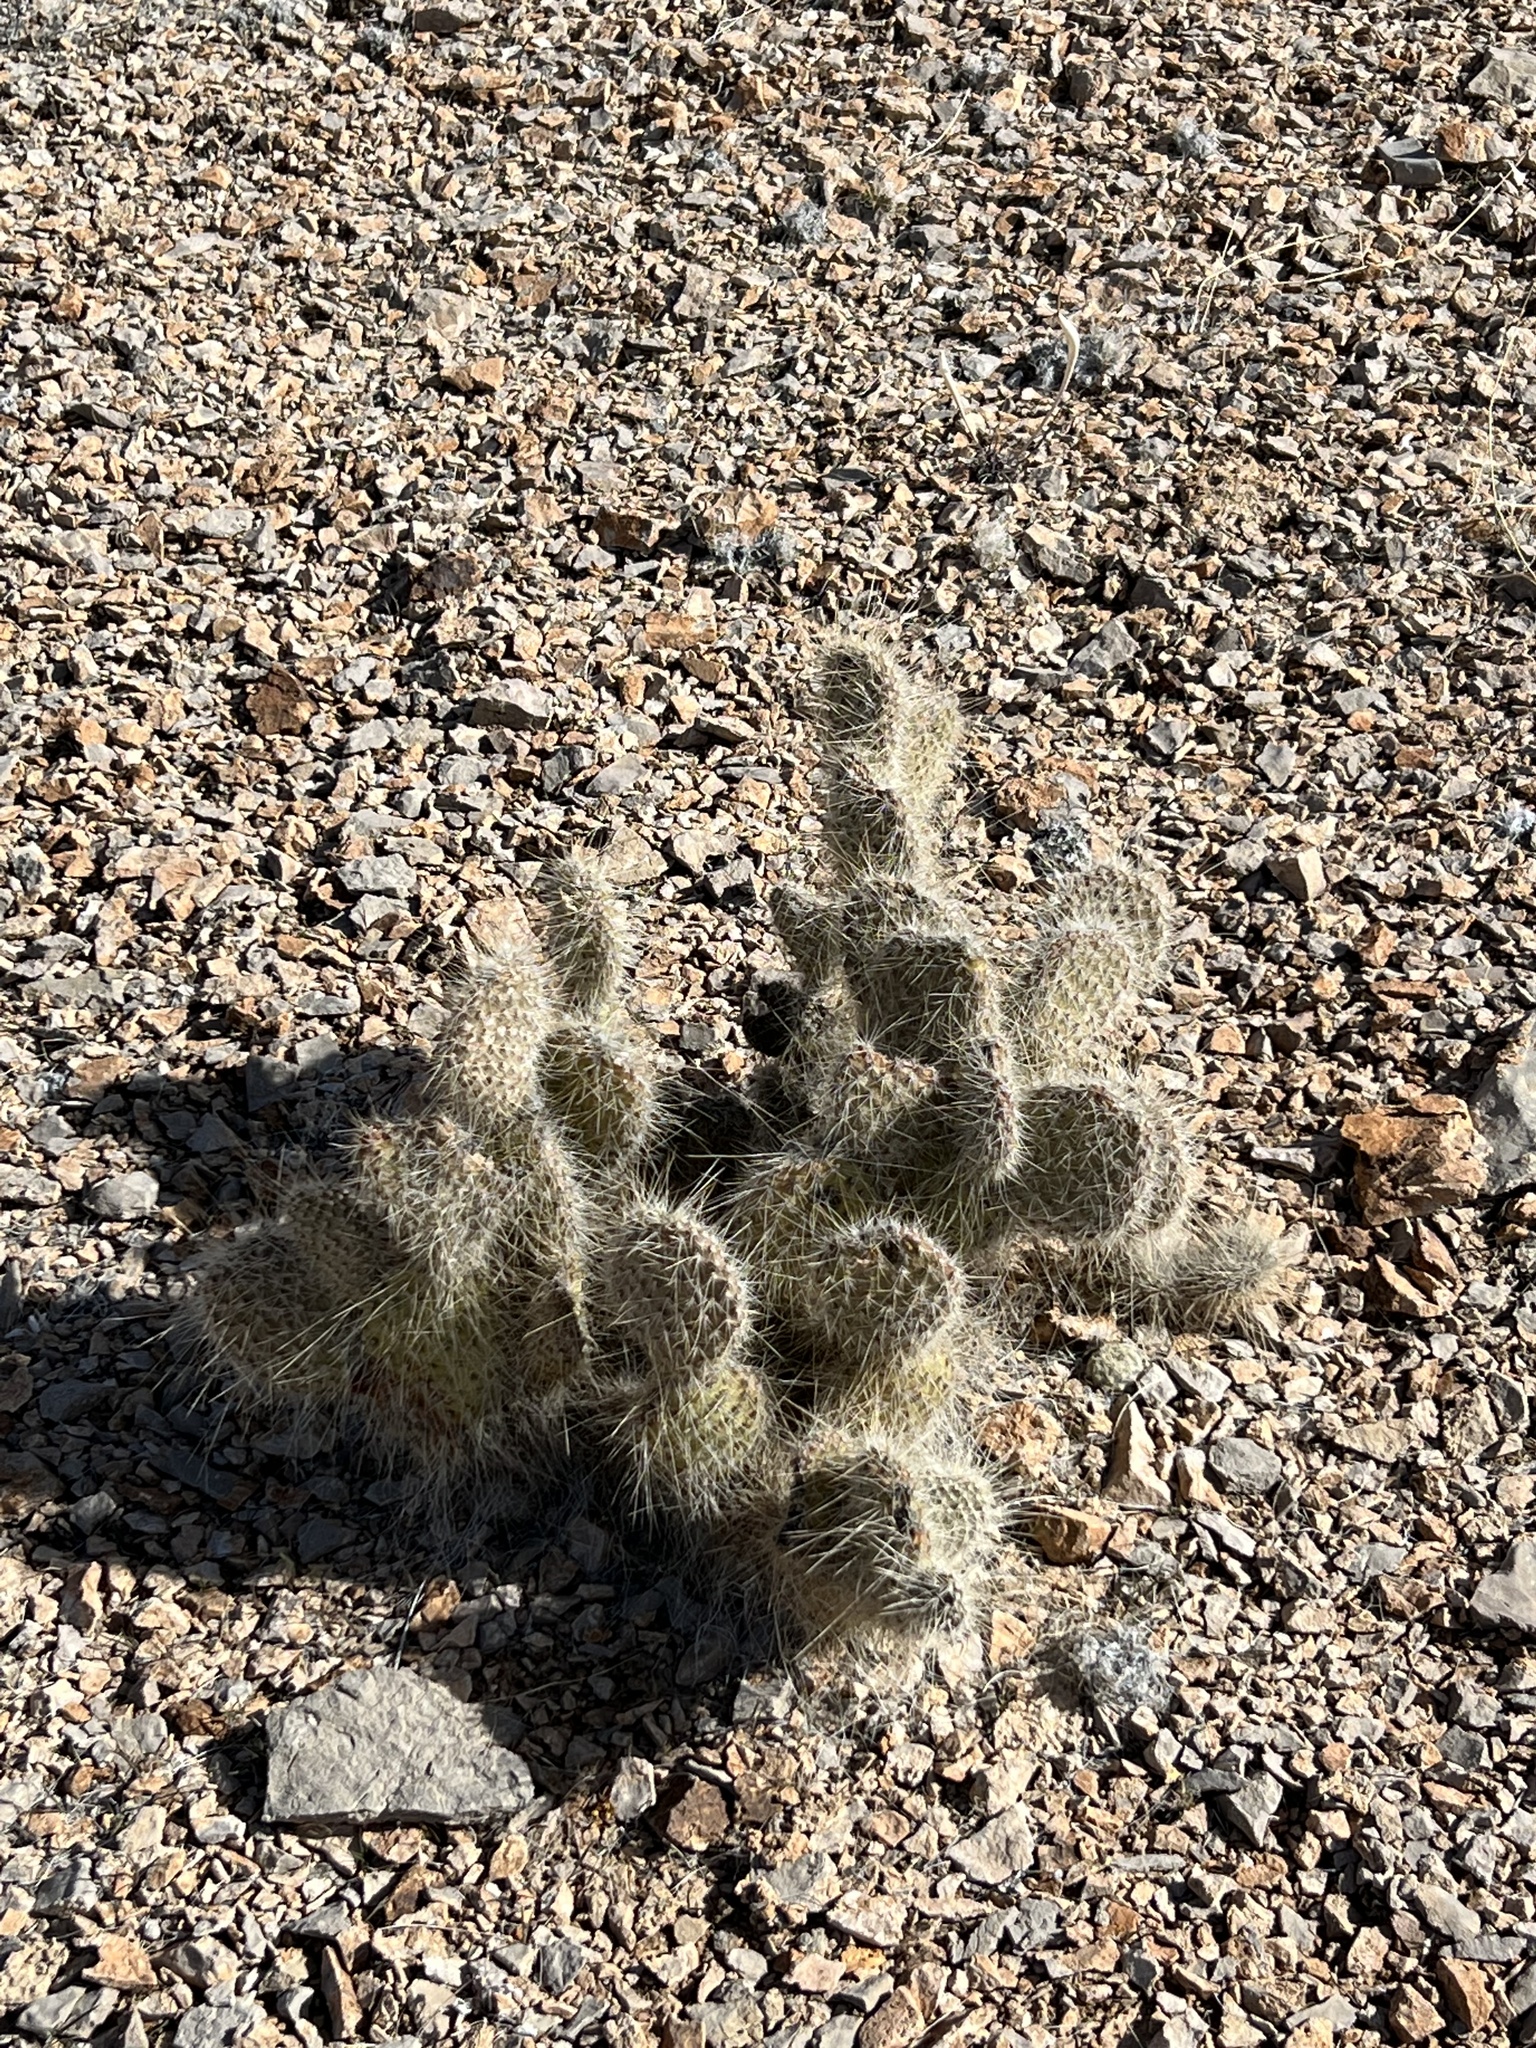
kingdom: Plantae
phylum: Tracheophyta
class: Magnoliopsida
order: Caryophyllales
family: Cactaceae
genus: Opuntia
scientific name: Opuntia polyacantha
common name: Plains prickly-pear
